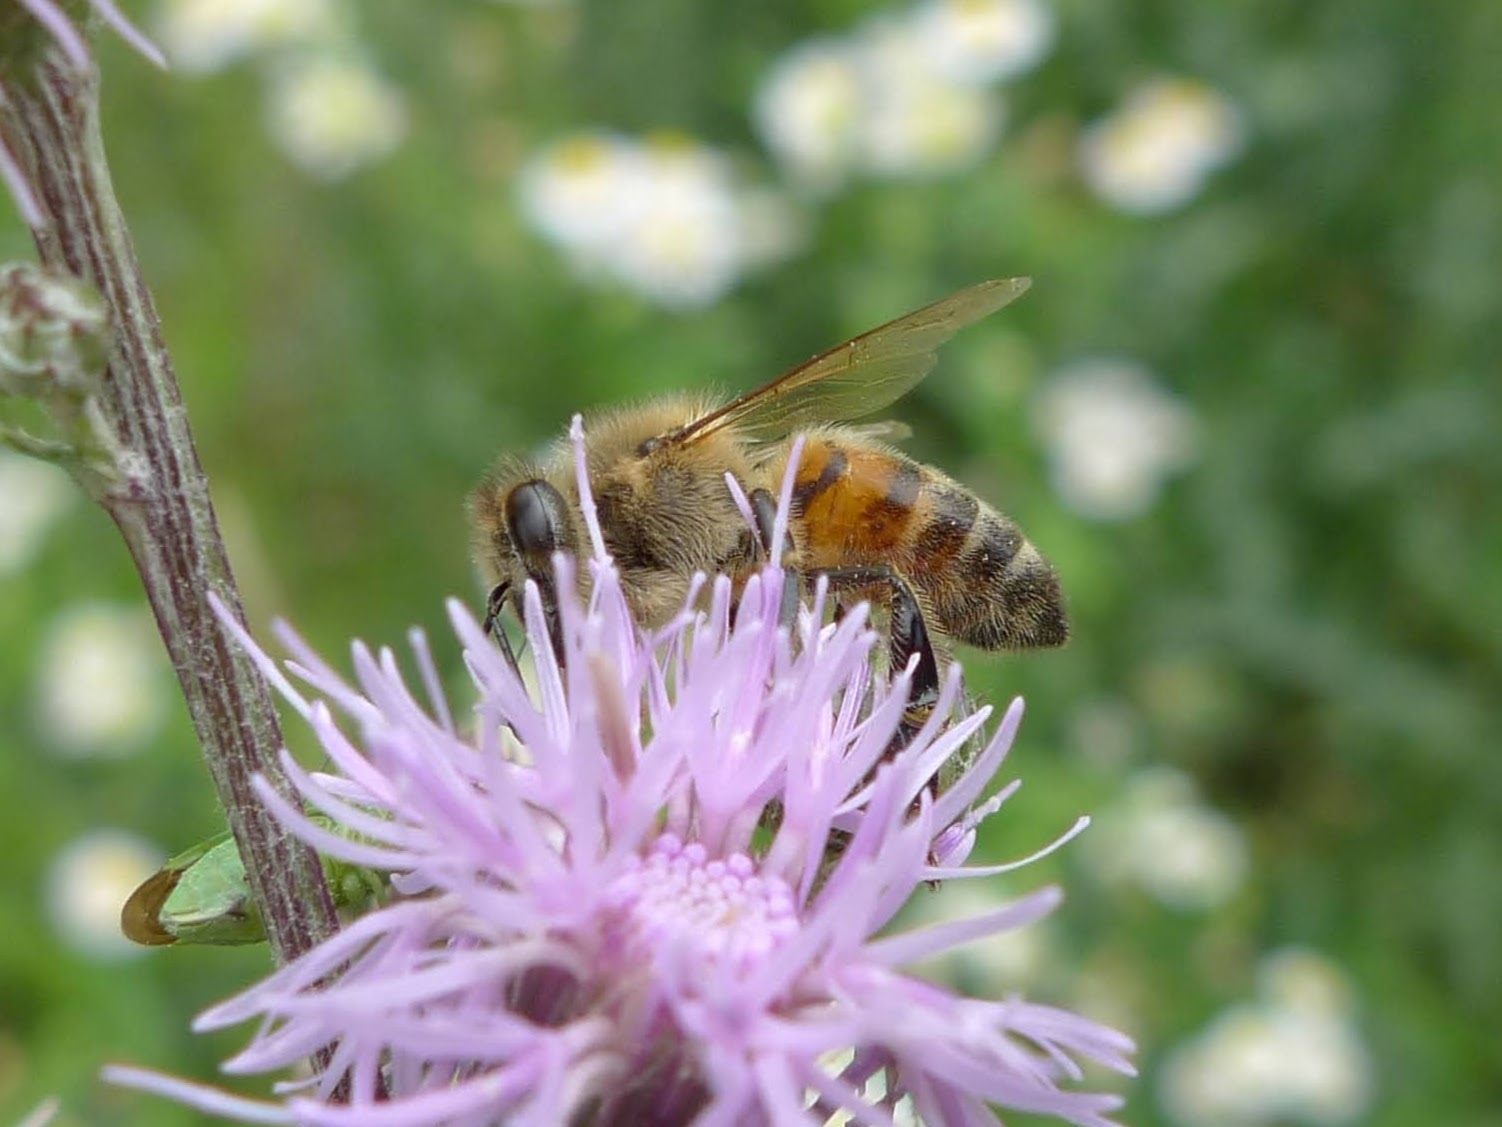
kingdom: Animalia
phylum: Arthropoda
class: Insecta
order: Hymenoptera
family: Apidae
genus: Apis
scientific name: Apis mellifera
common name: Honey bee
